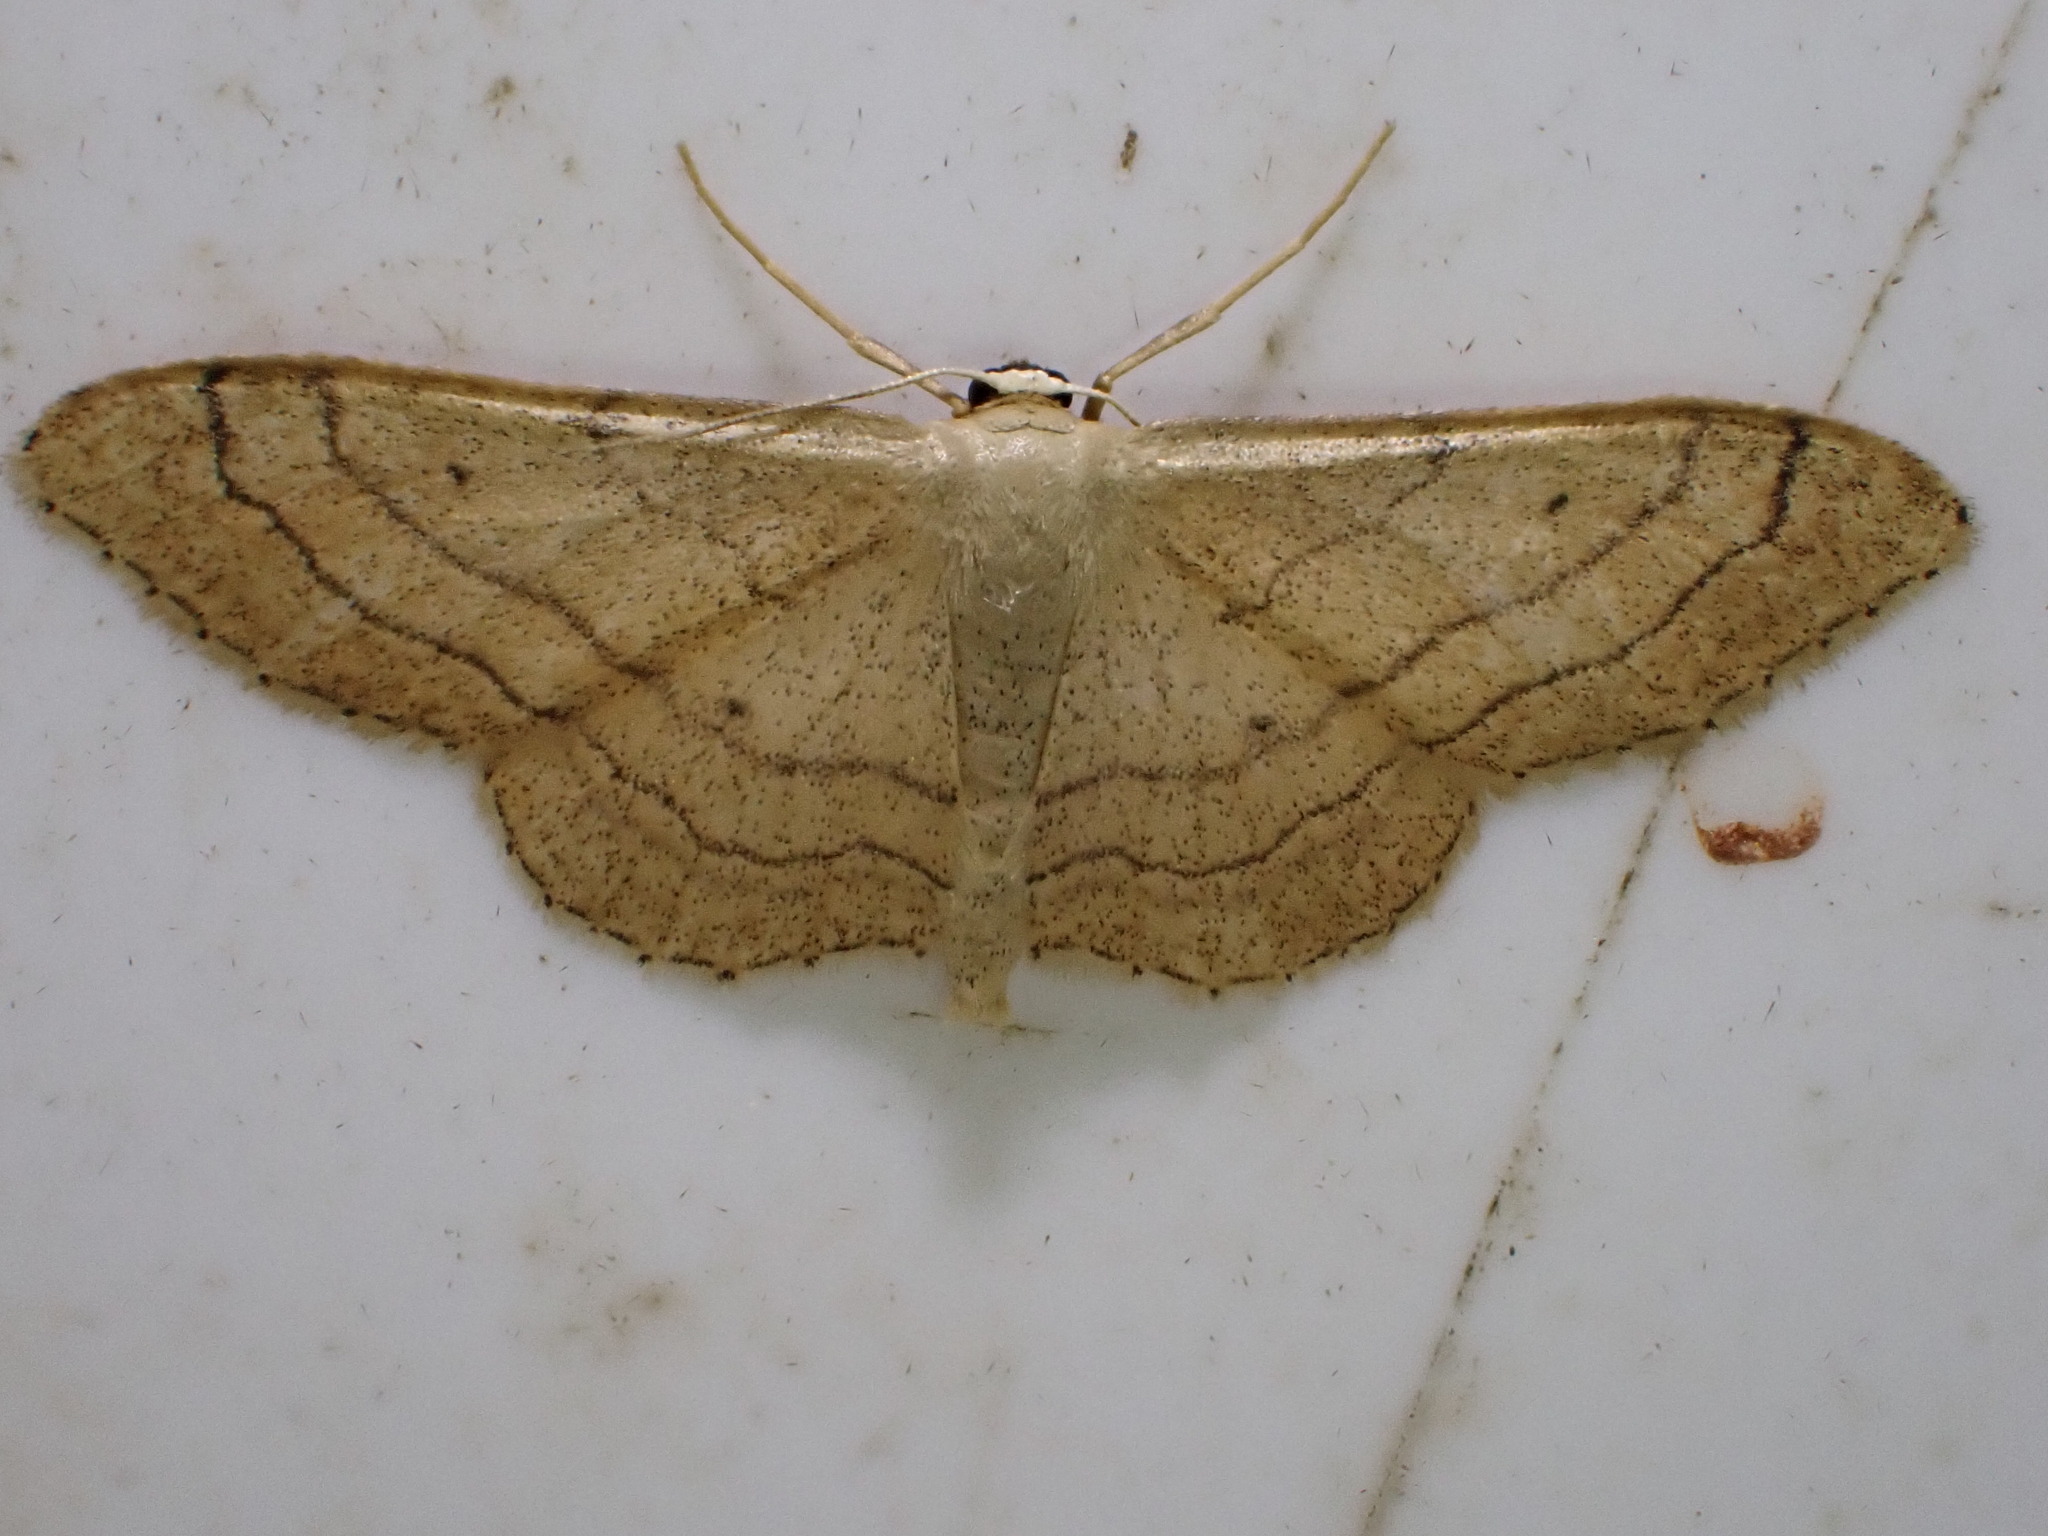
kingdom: Animalia
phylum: Arthropoda
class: Insecta
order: Lepidoptera
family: Geometridae
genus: Idaea
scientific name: Idaea aversata
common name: Riband wave
